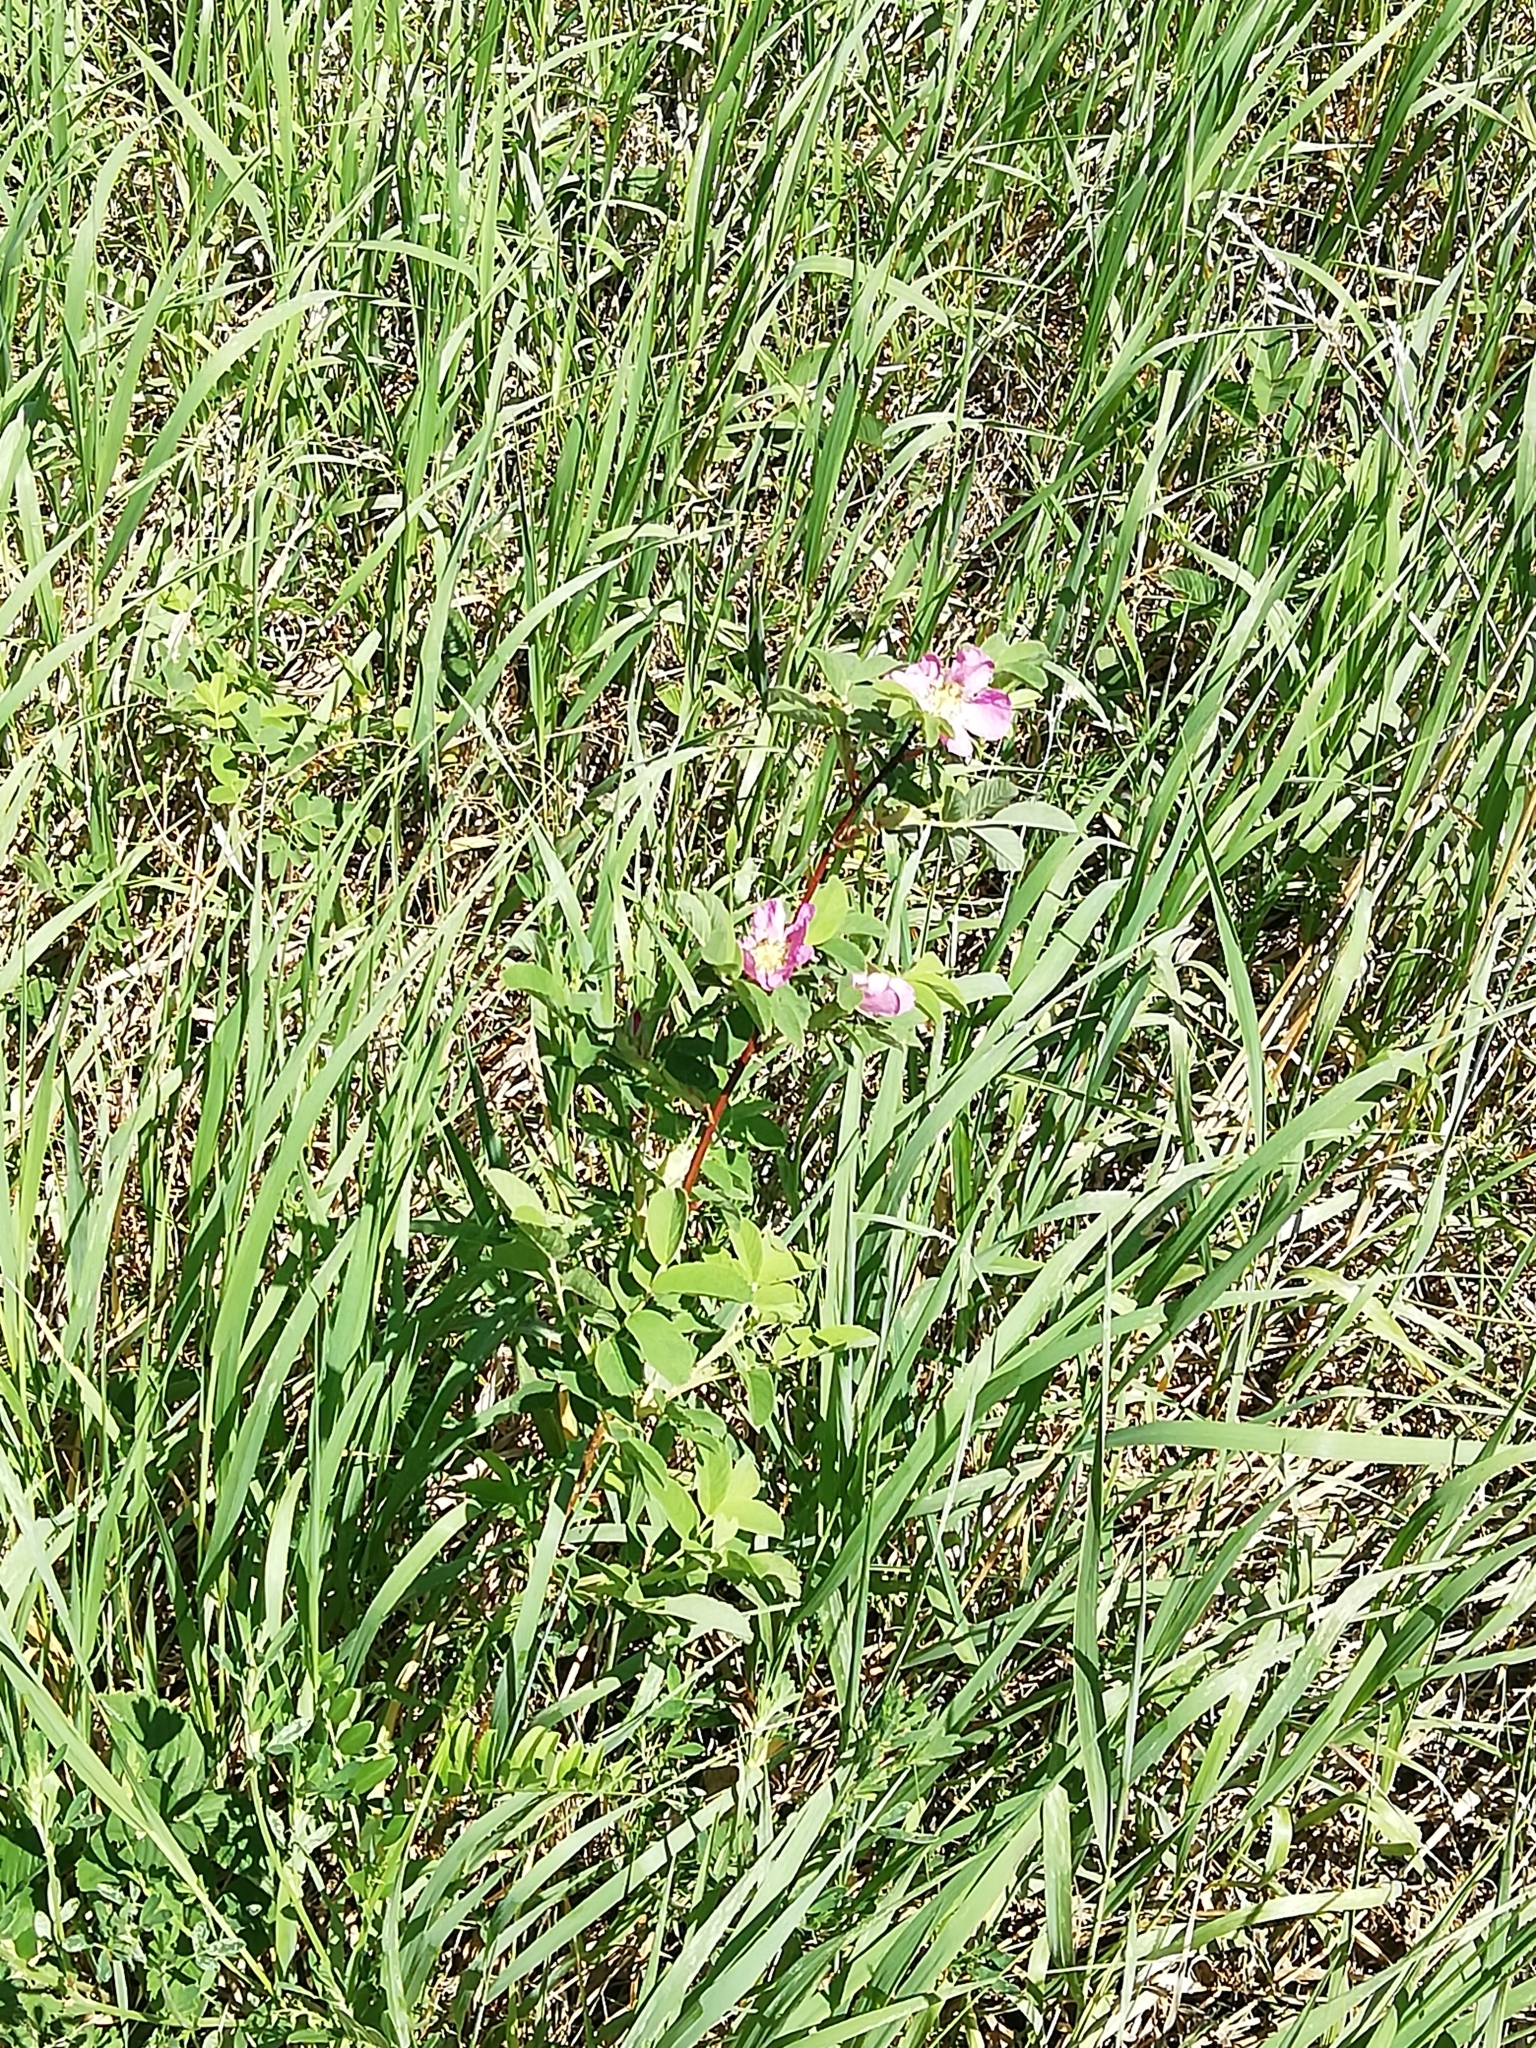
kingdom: Plantae
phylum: Tracheophyta
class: Magnoliopsida
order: Rosales
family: Rosaceae
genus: Rosa
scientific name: Rosa majalis
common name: Cinnamon rose
